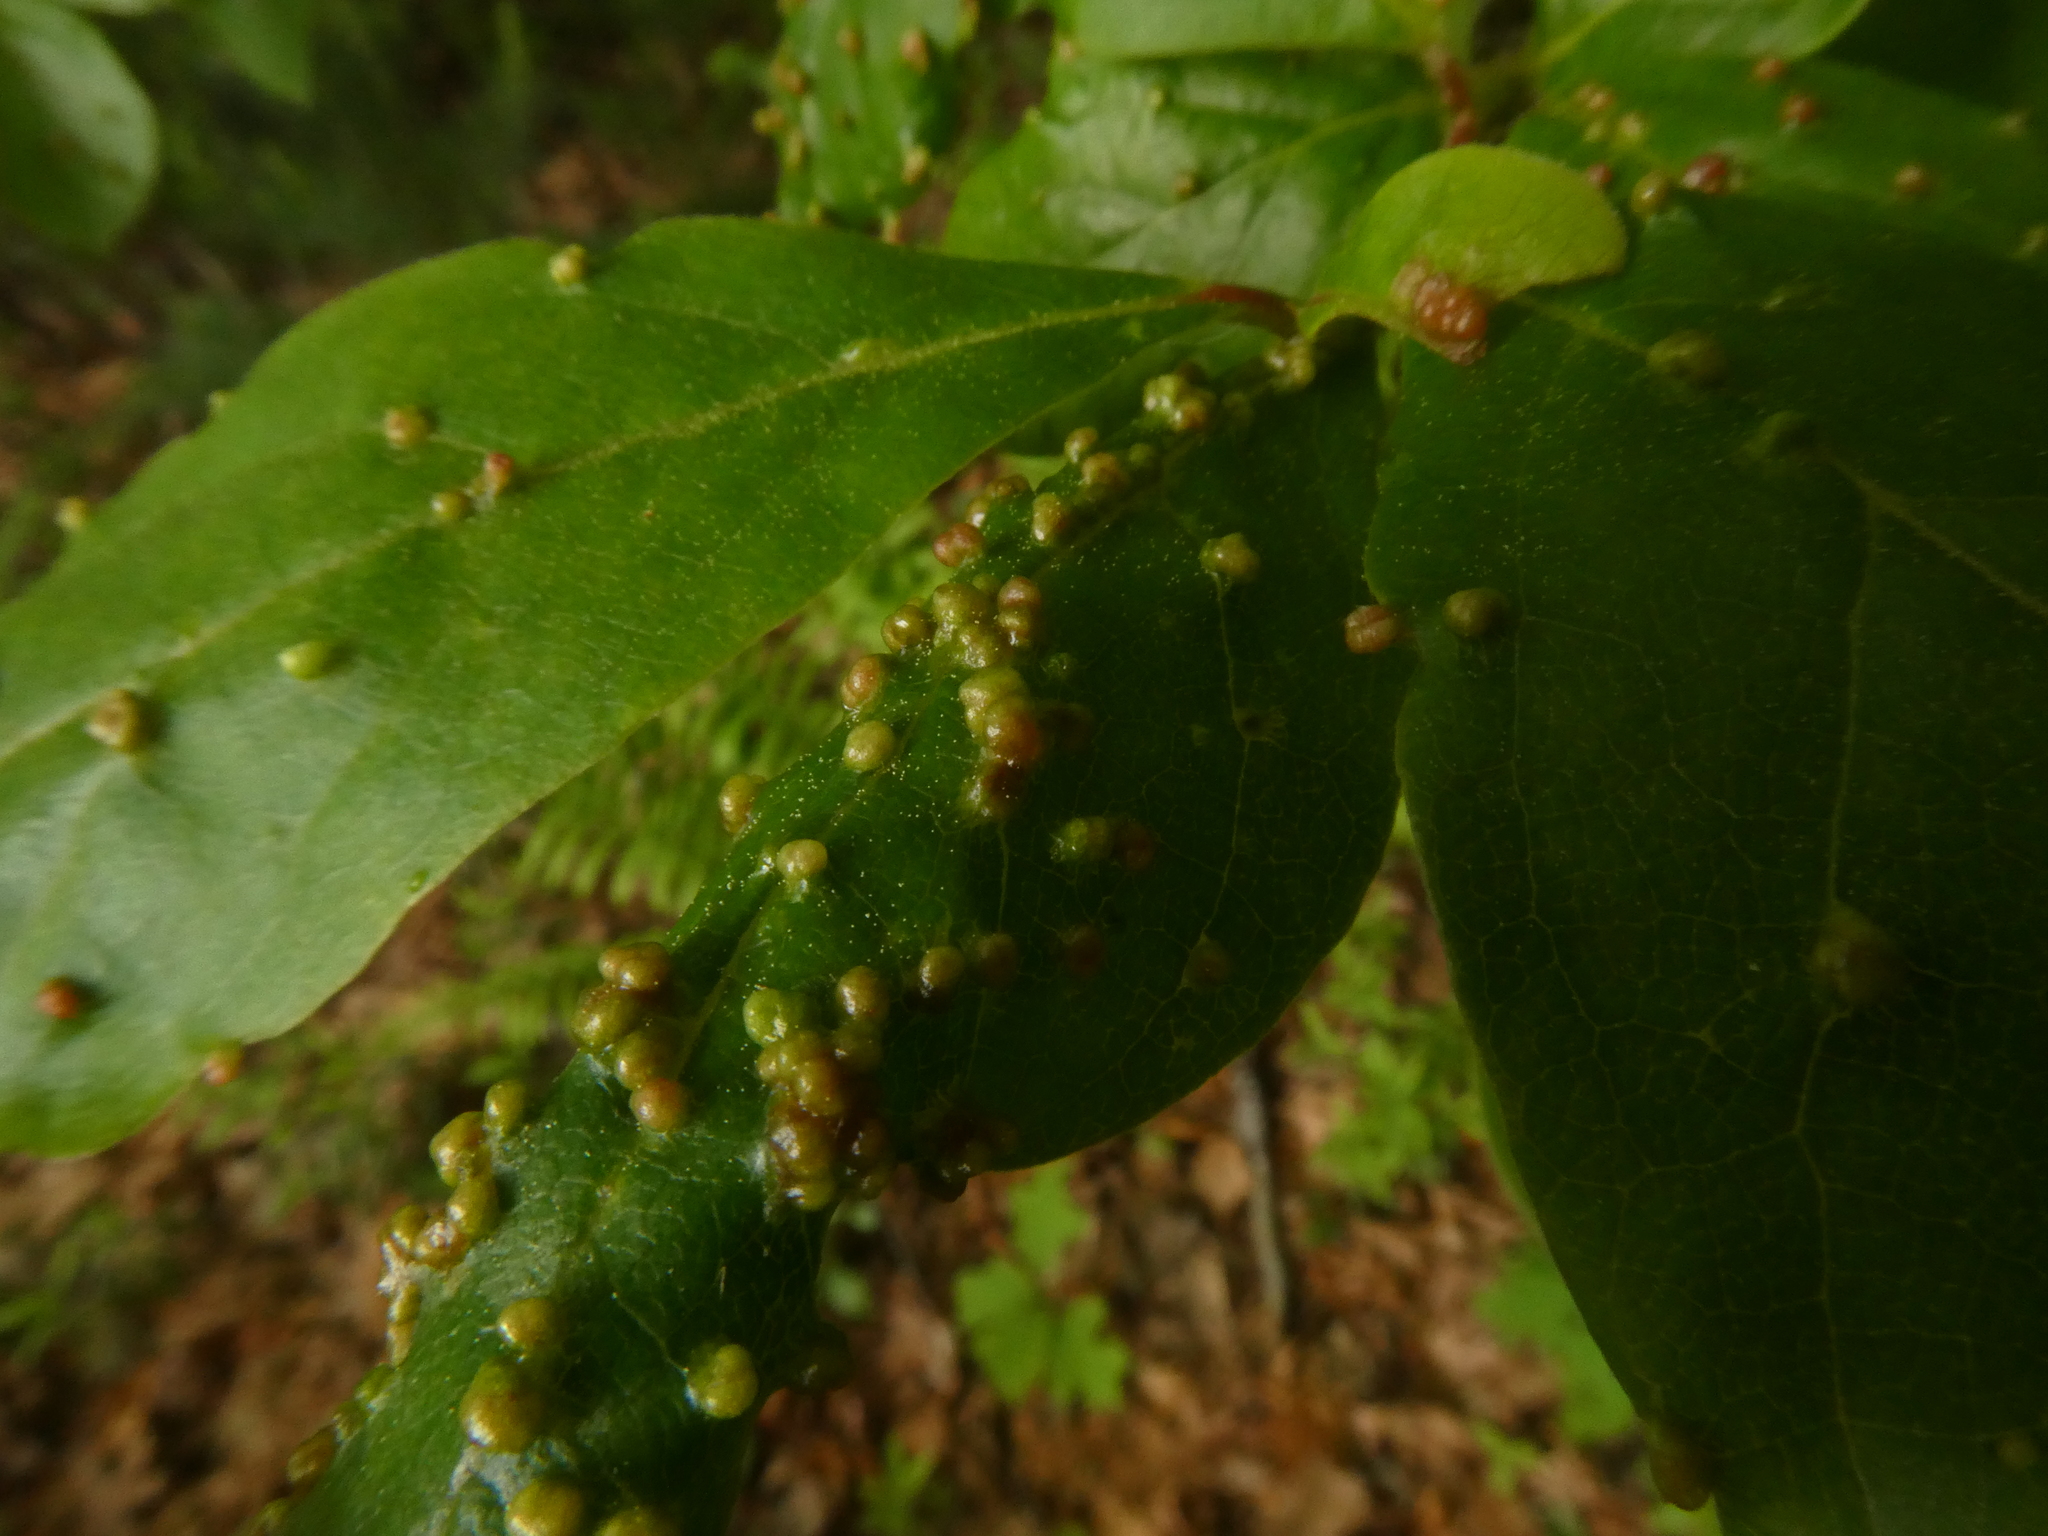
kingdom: Animalia
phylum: Arthropoda
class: Arachnida
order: Trombidiformes
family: Eriophyidae
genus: Aceria
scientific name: Aceria
